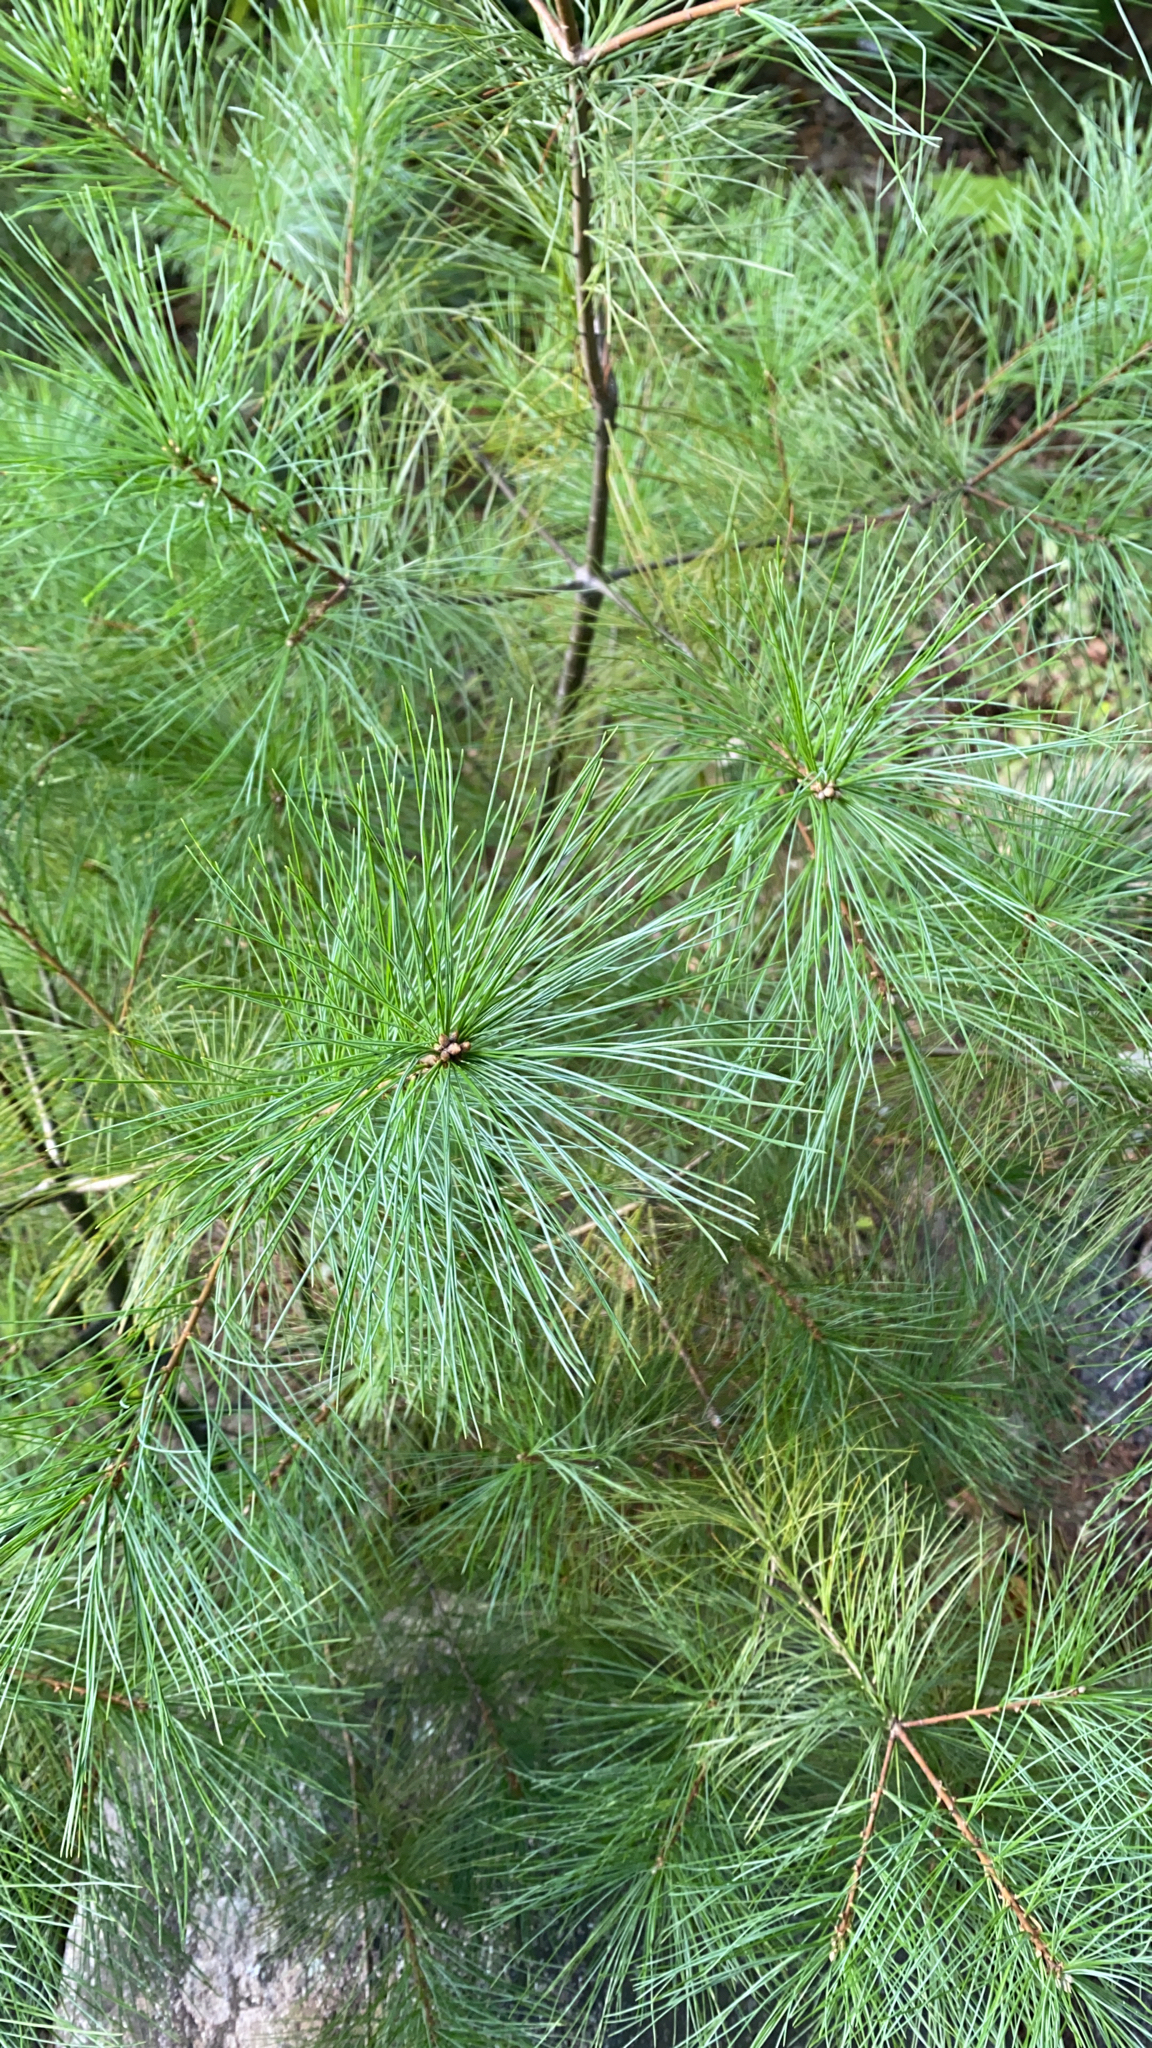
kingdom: Plantae
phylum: Tracheophyta
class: Pinopsida
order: Pinales
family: Pinaceae
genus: Pinus
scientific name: Pinus strobus
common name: Weymouth pine
